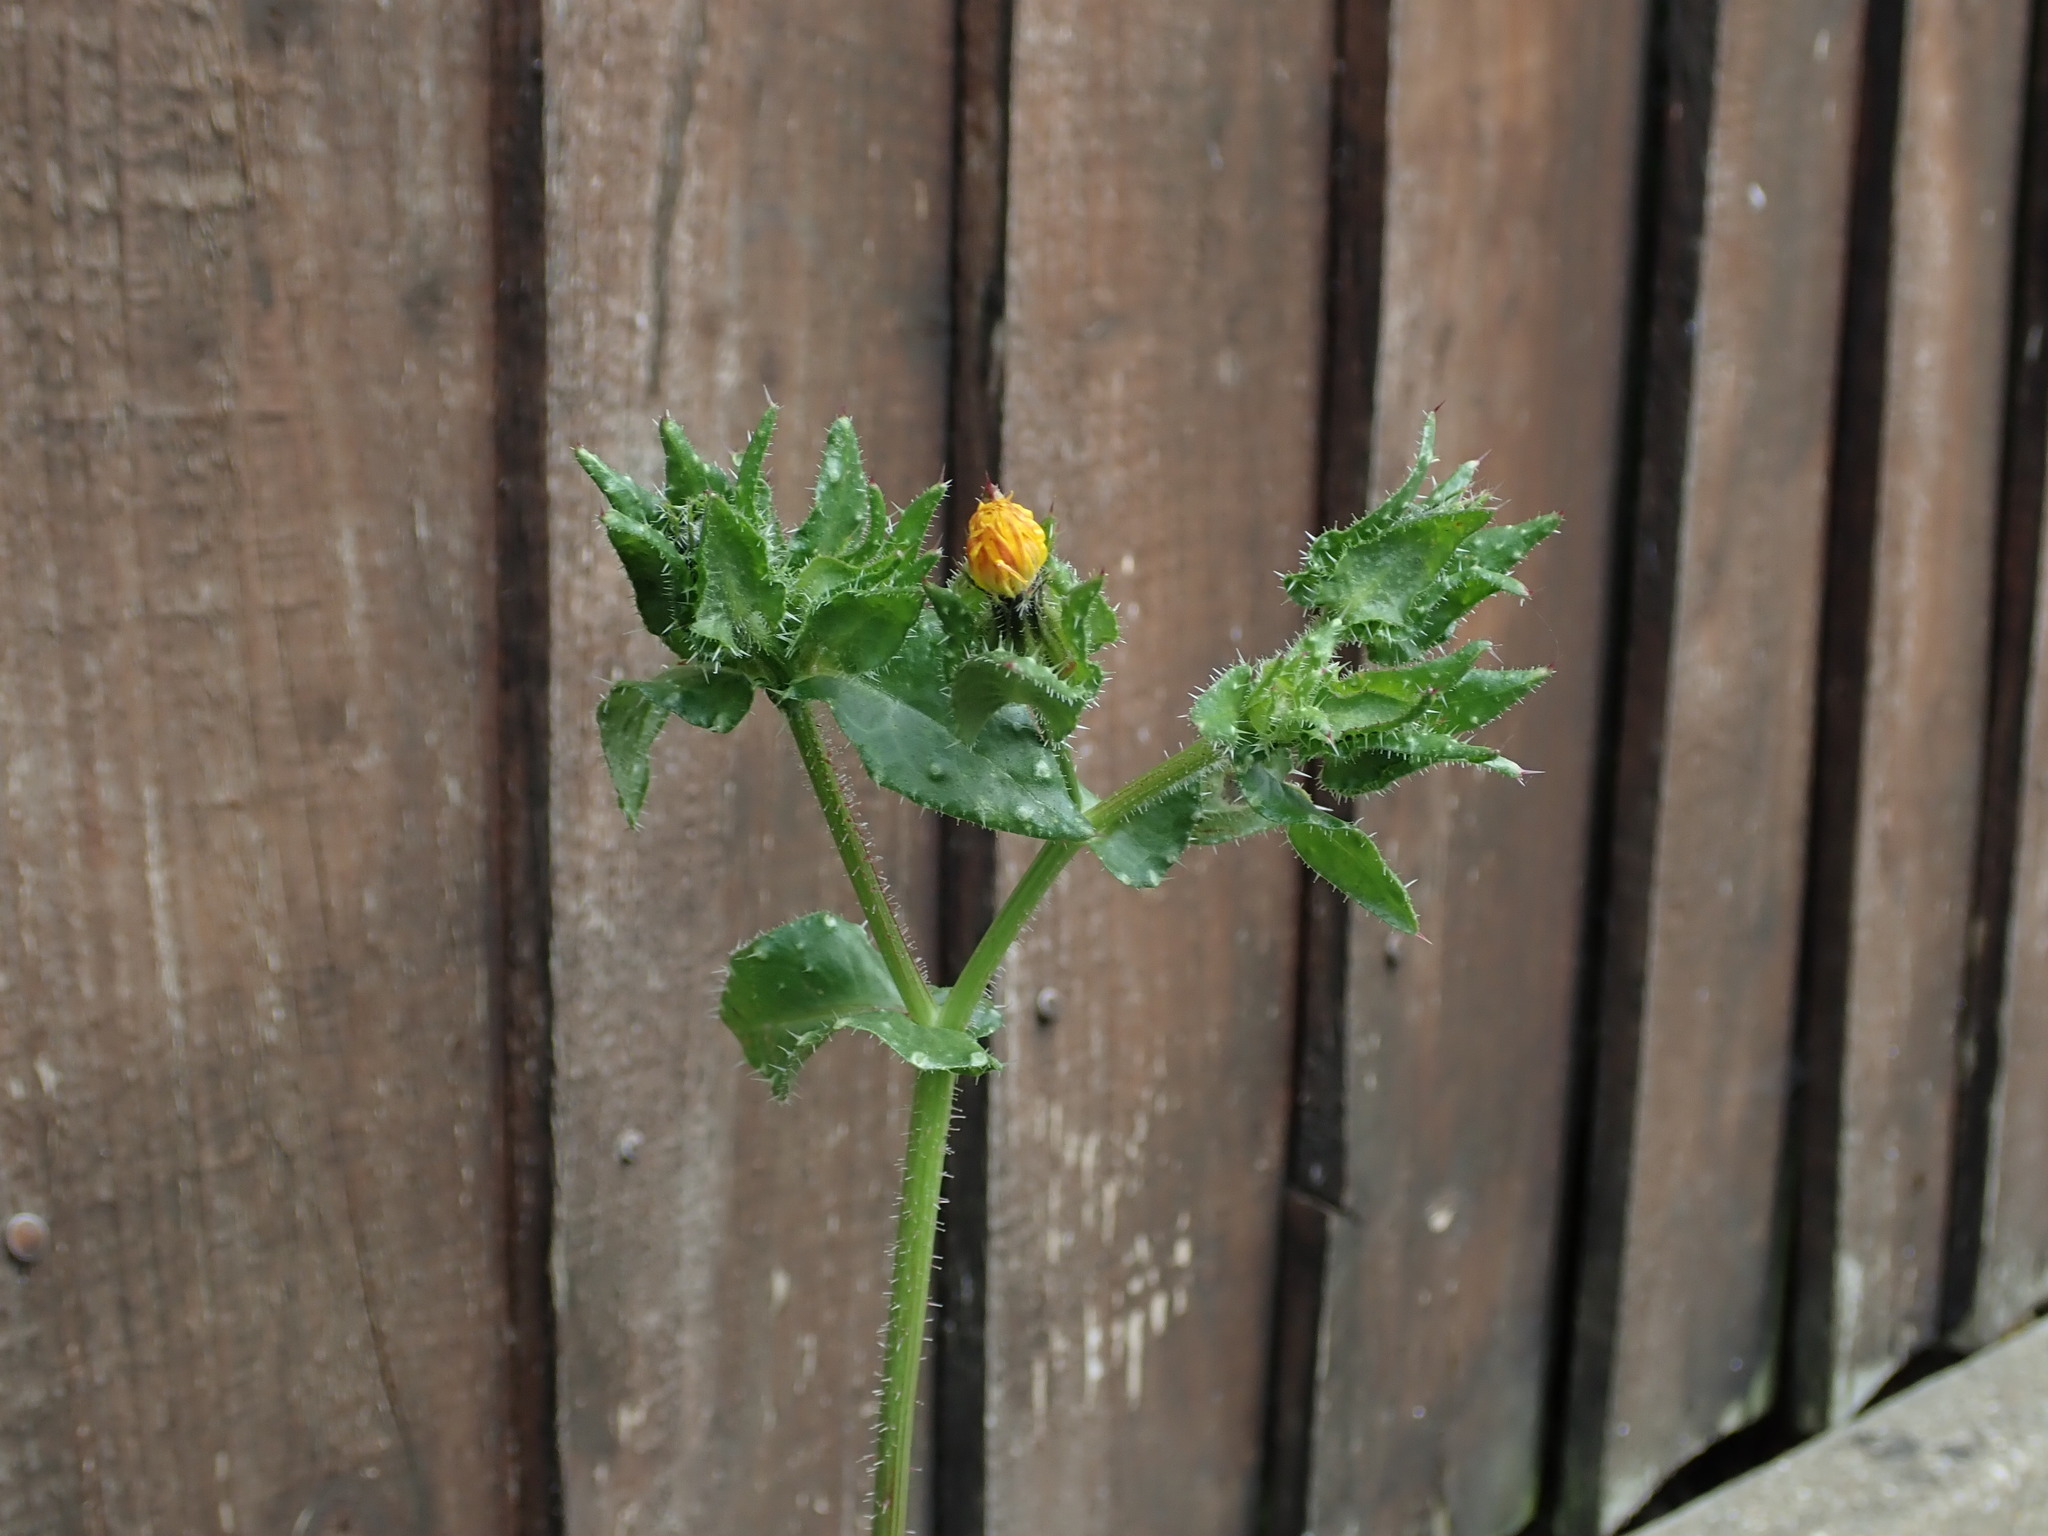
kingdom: Plantae
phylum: Tracheophyta
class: Magnoliopsida
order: Asterales
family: Asteraceae
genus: Helminthotheca
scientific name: Helminthotheca echioides
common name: Ox-tongue
